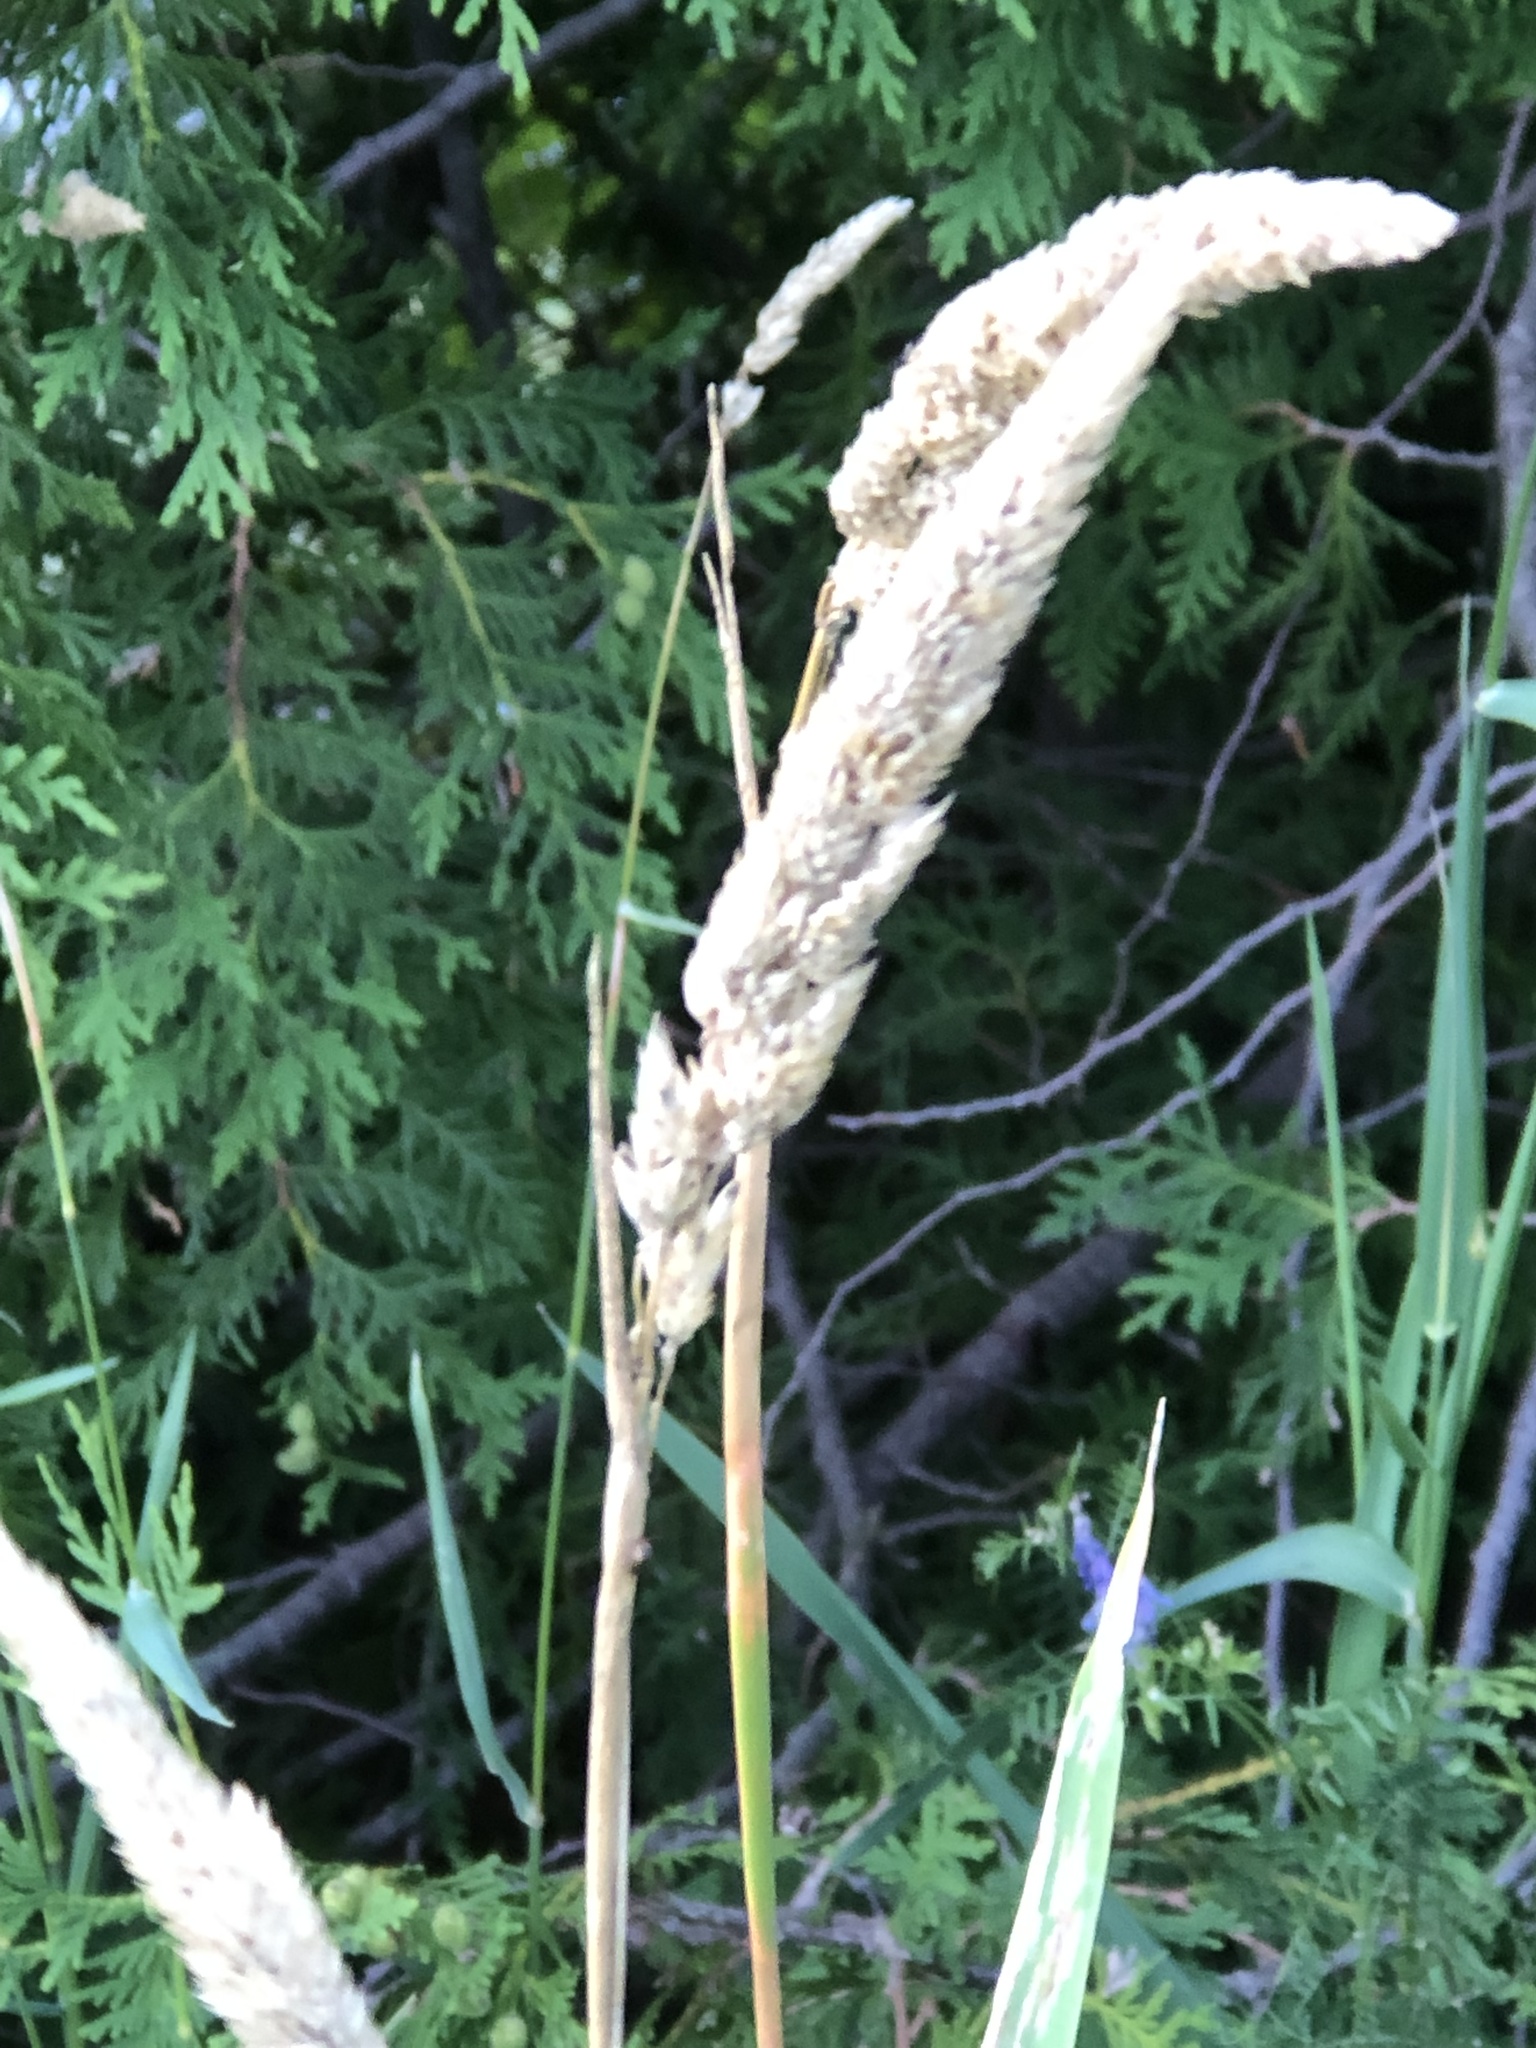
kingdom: Plantae
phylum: Tracheophyta
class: Liliopsida
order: Poales
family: Poaceae
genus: Phalaris
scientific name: Phalaris arundinacea
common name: Reed canary-grass
